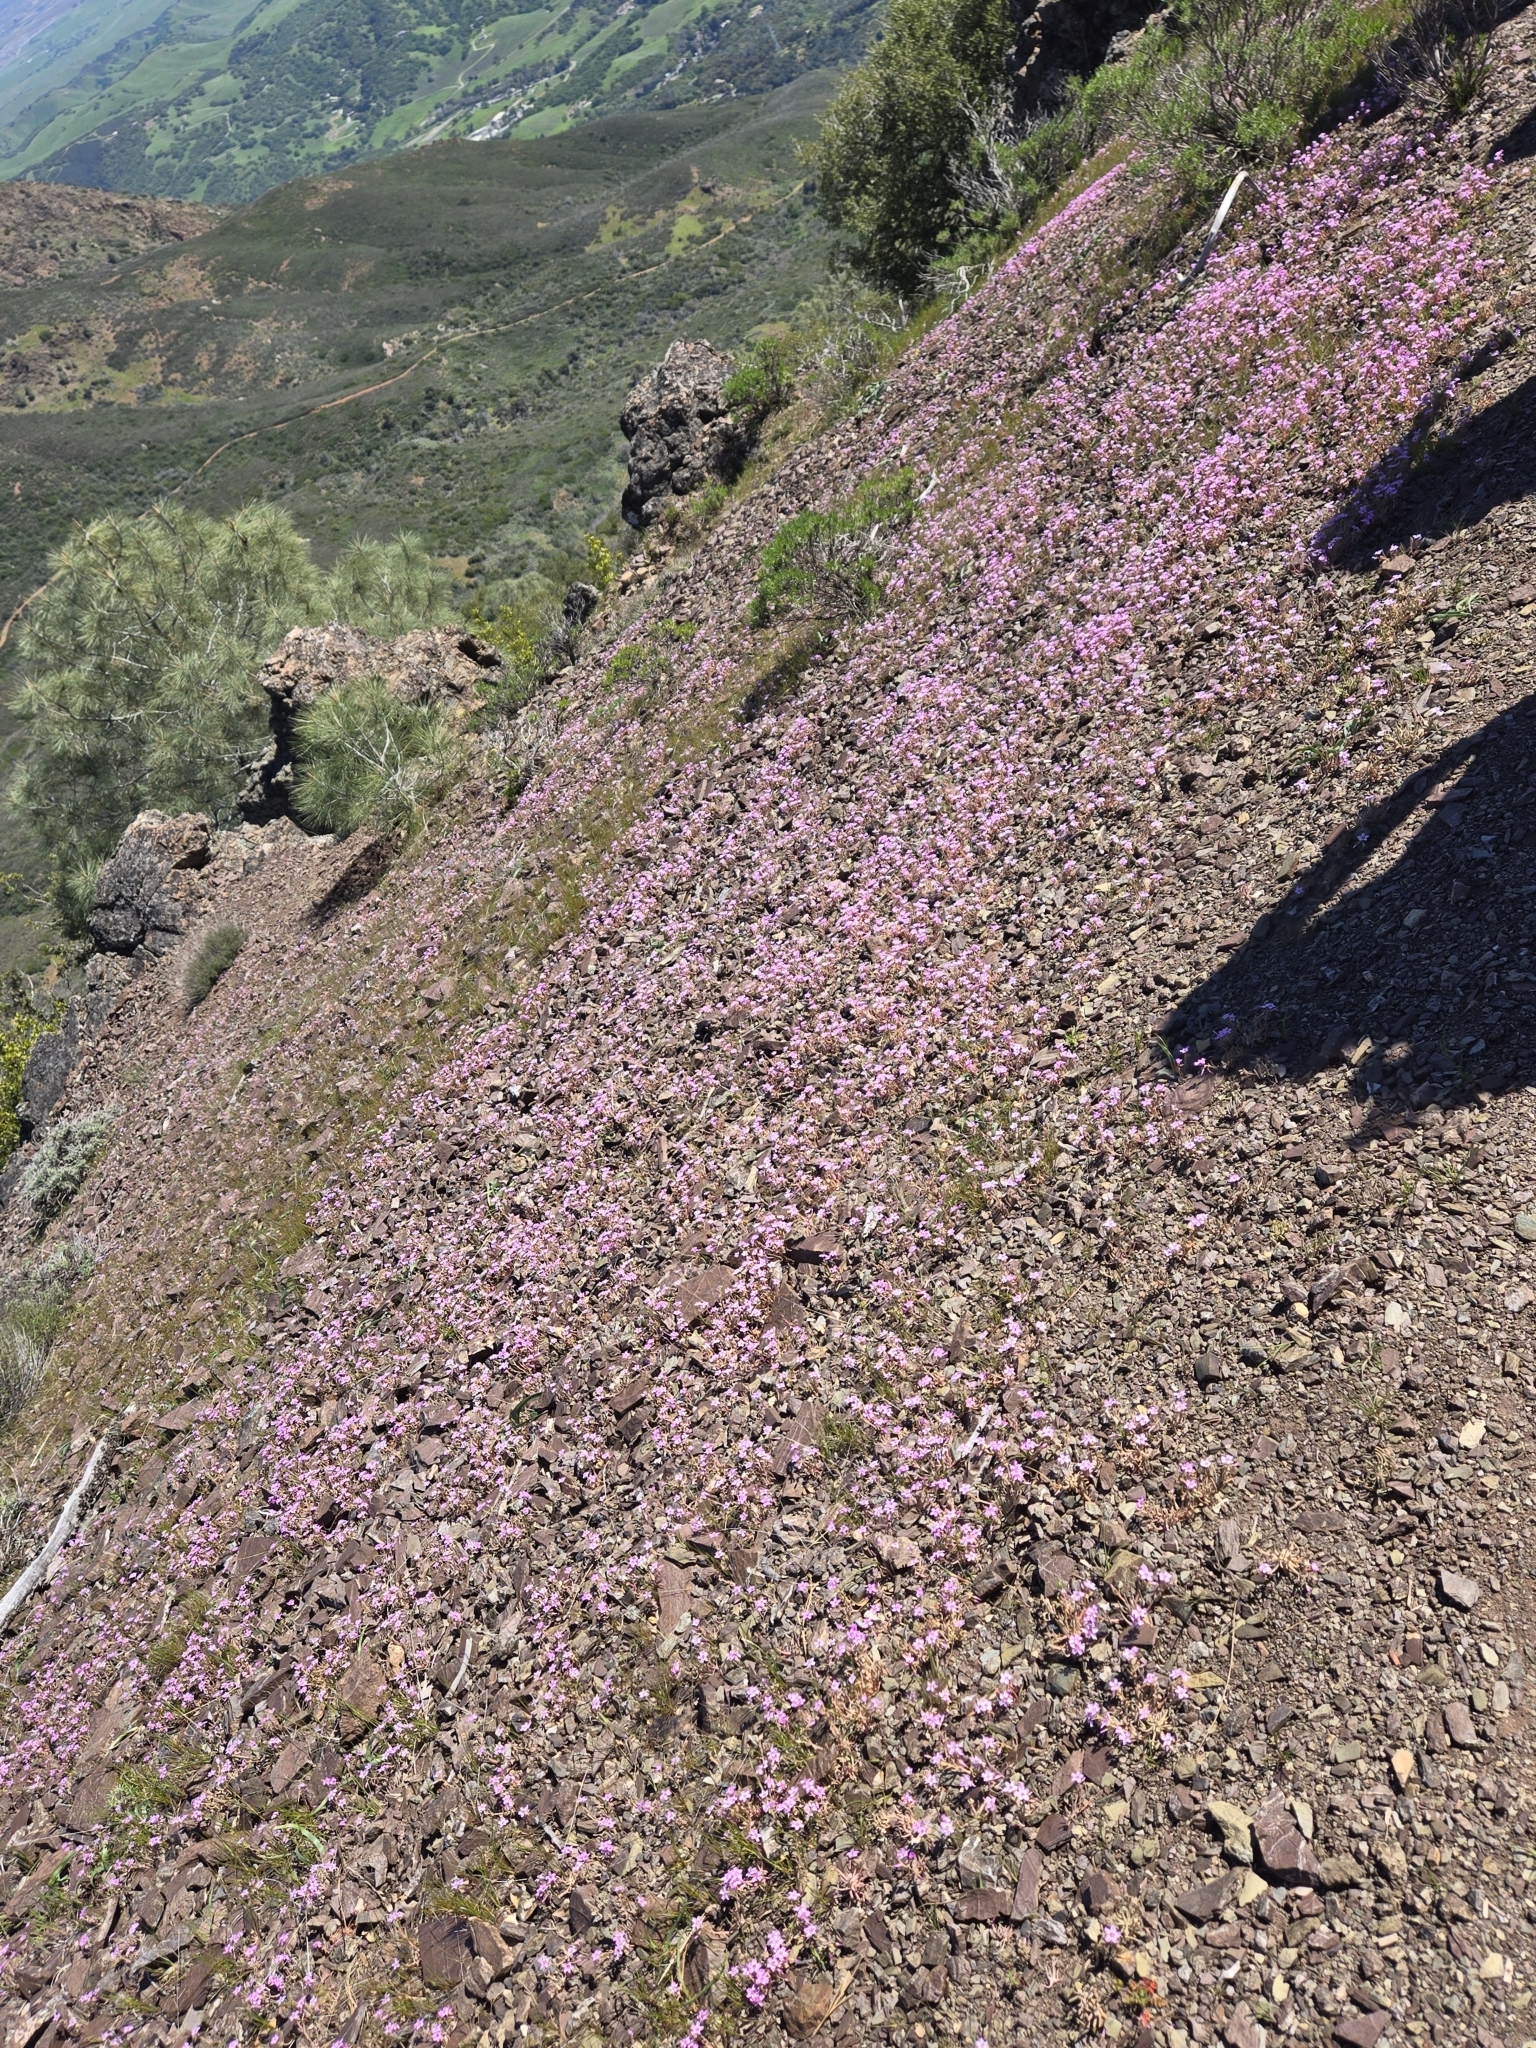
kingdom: Plantae
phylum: Tracheophyta
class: Magnoliopsida
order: Caryophyllales
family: Montiaceae
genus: Claytonia
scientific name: Claytonia gypsophiloides
